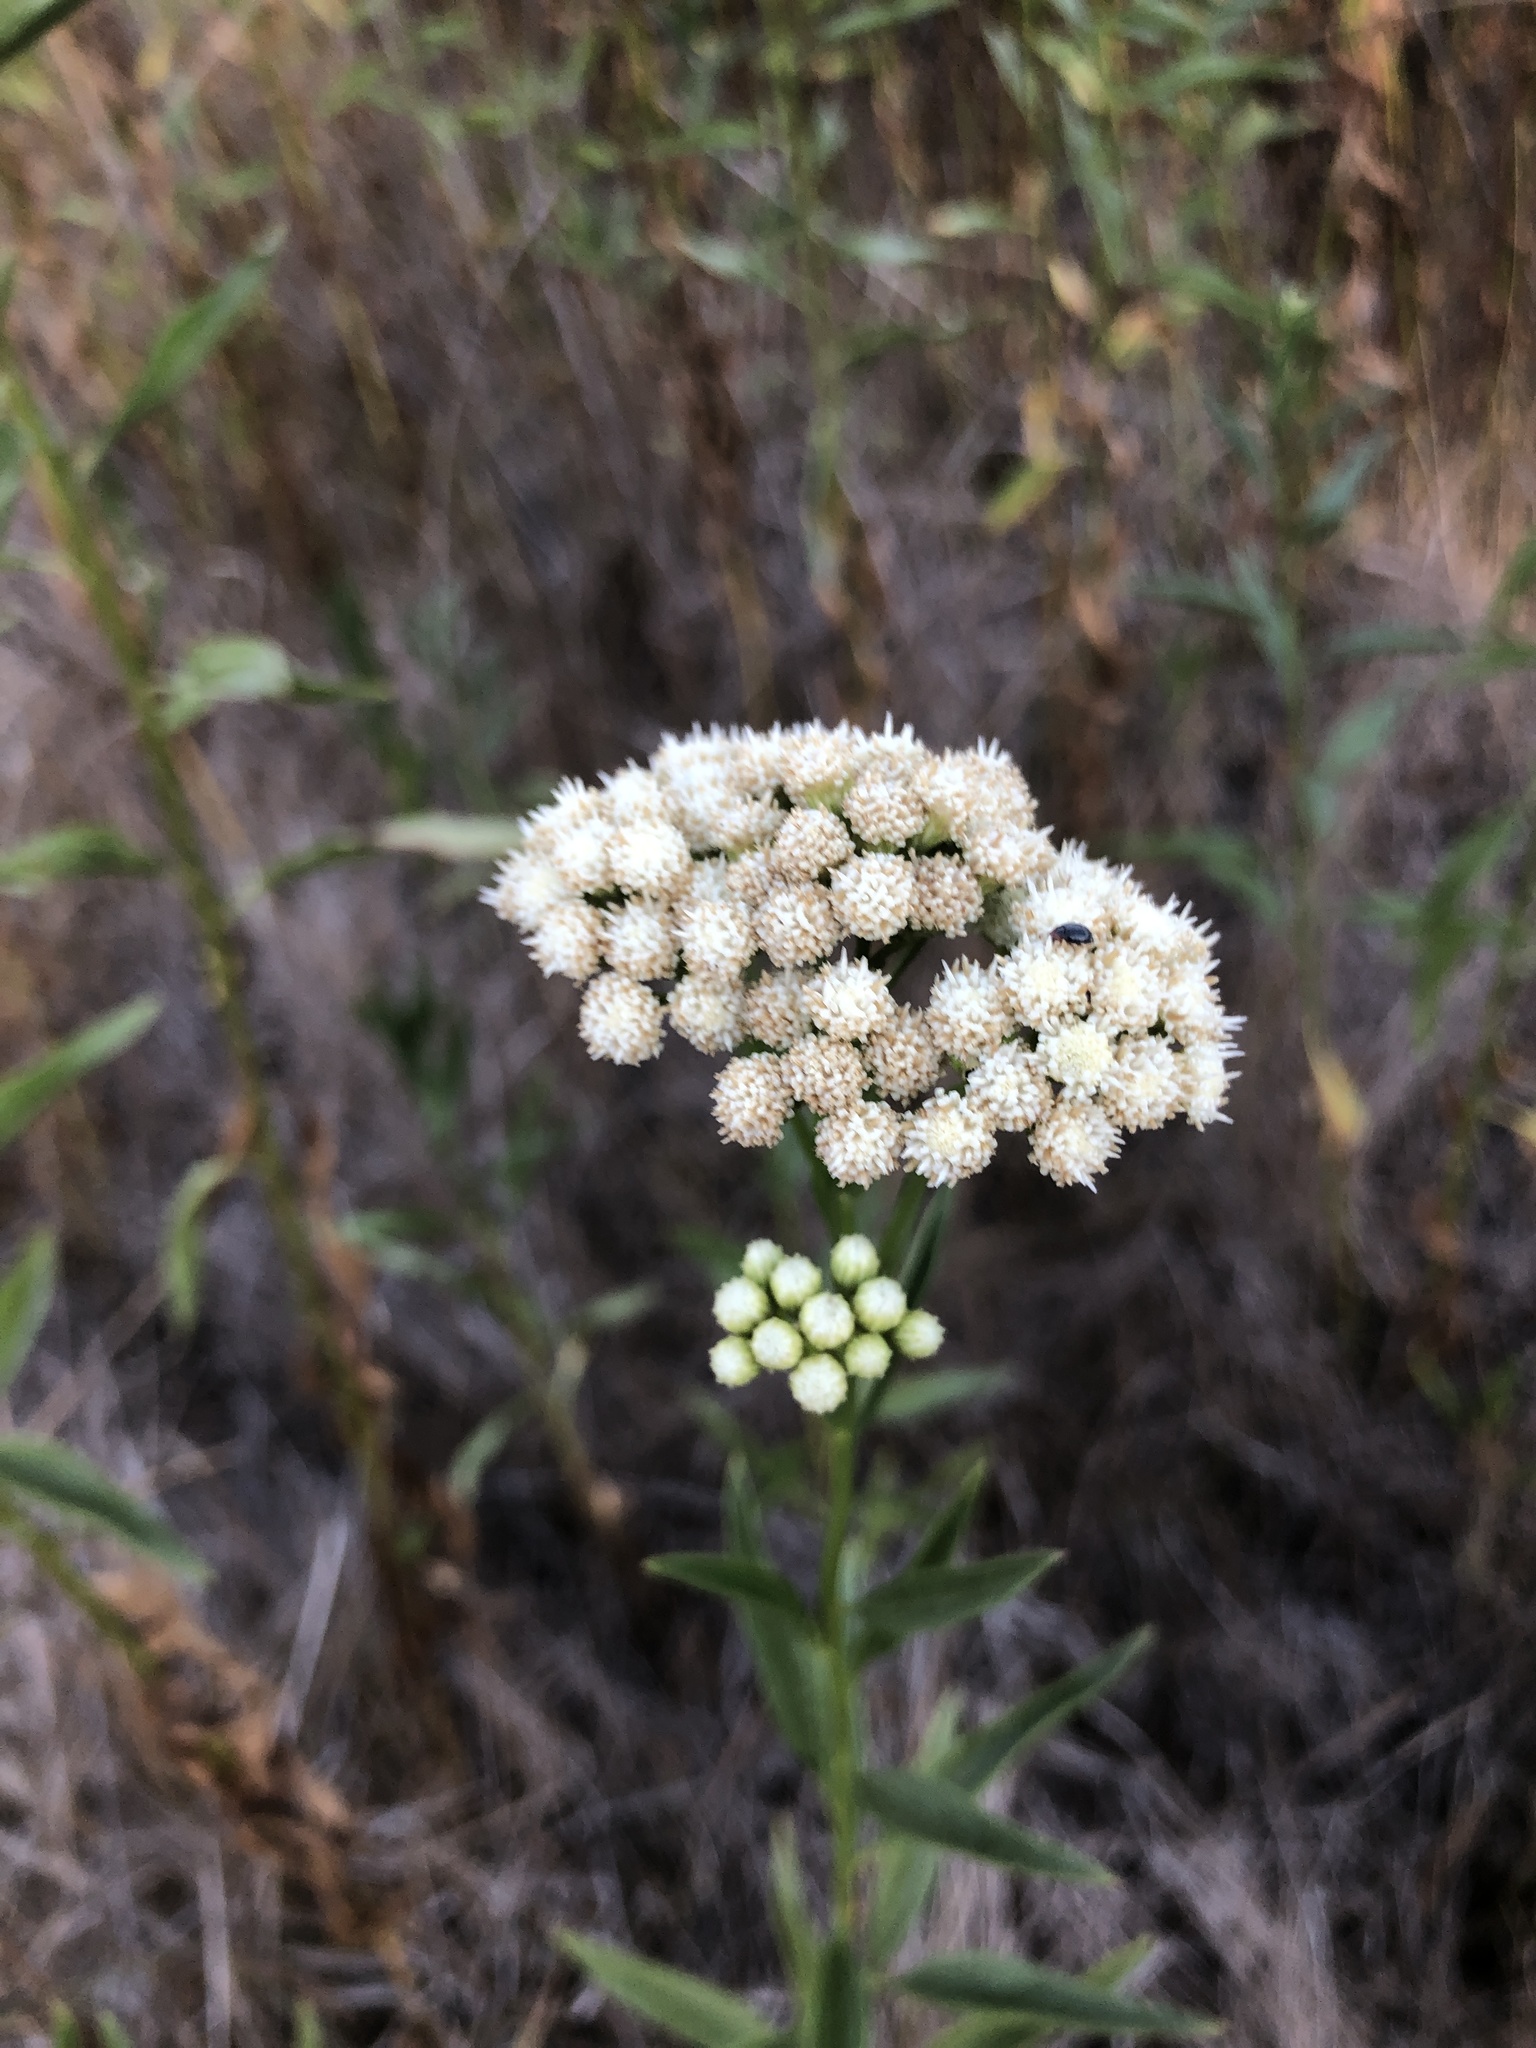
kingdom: Plantae
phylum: Tracheophyta
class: Magnoliopsida
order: Asterales
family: Asteraceae
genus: Baccharis
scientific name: Baccharis glutinosa
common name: Saltmarsh baccharis
